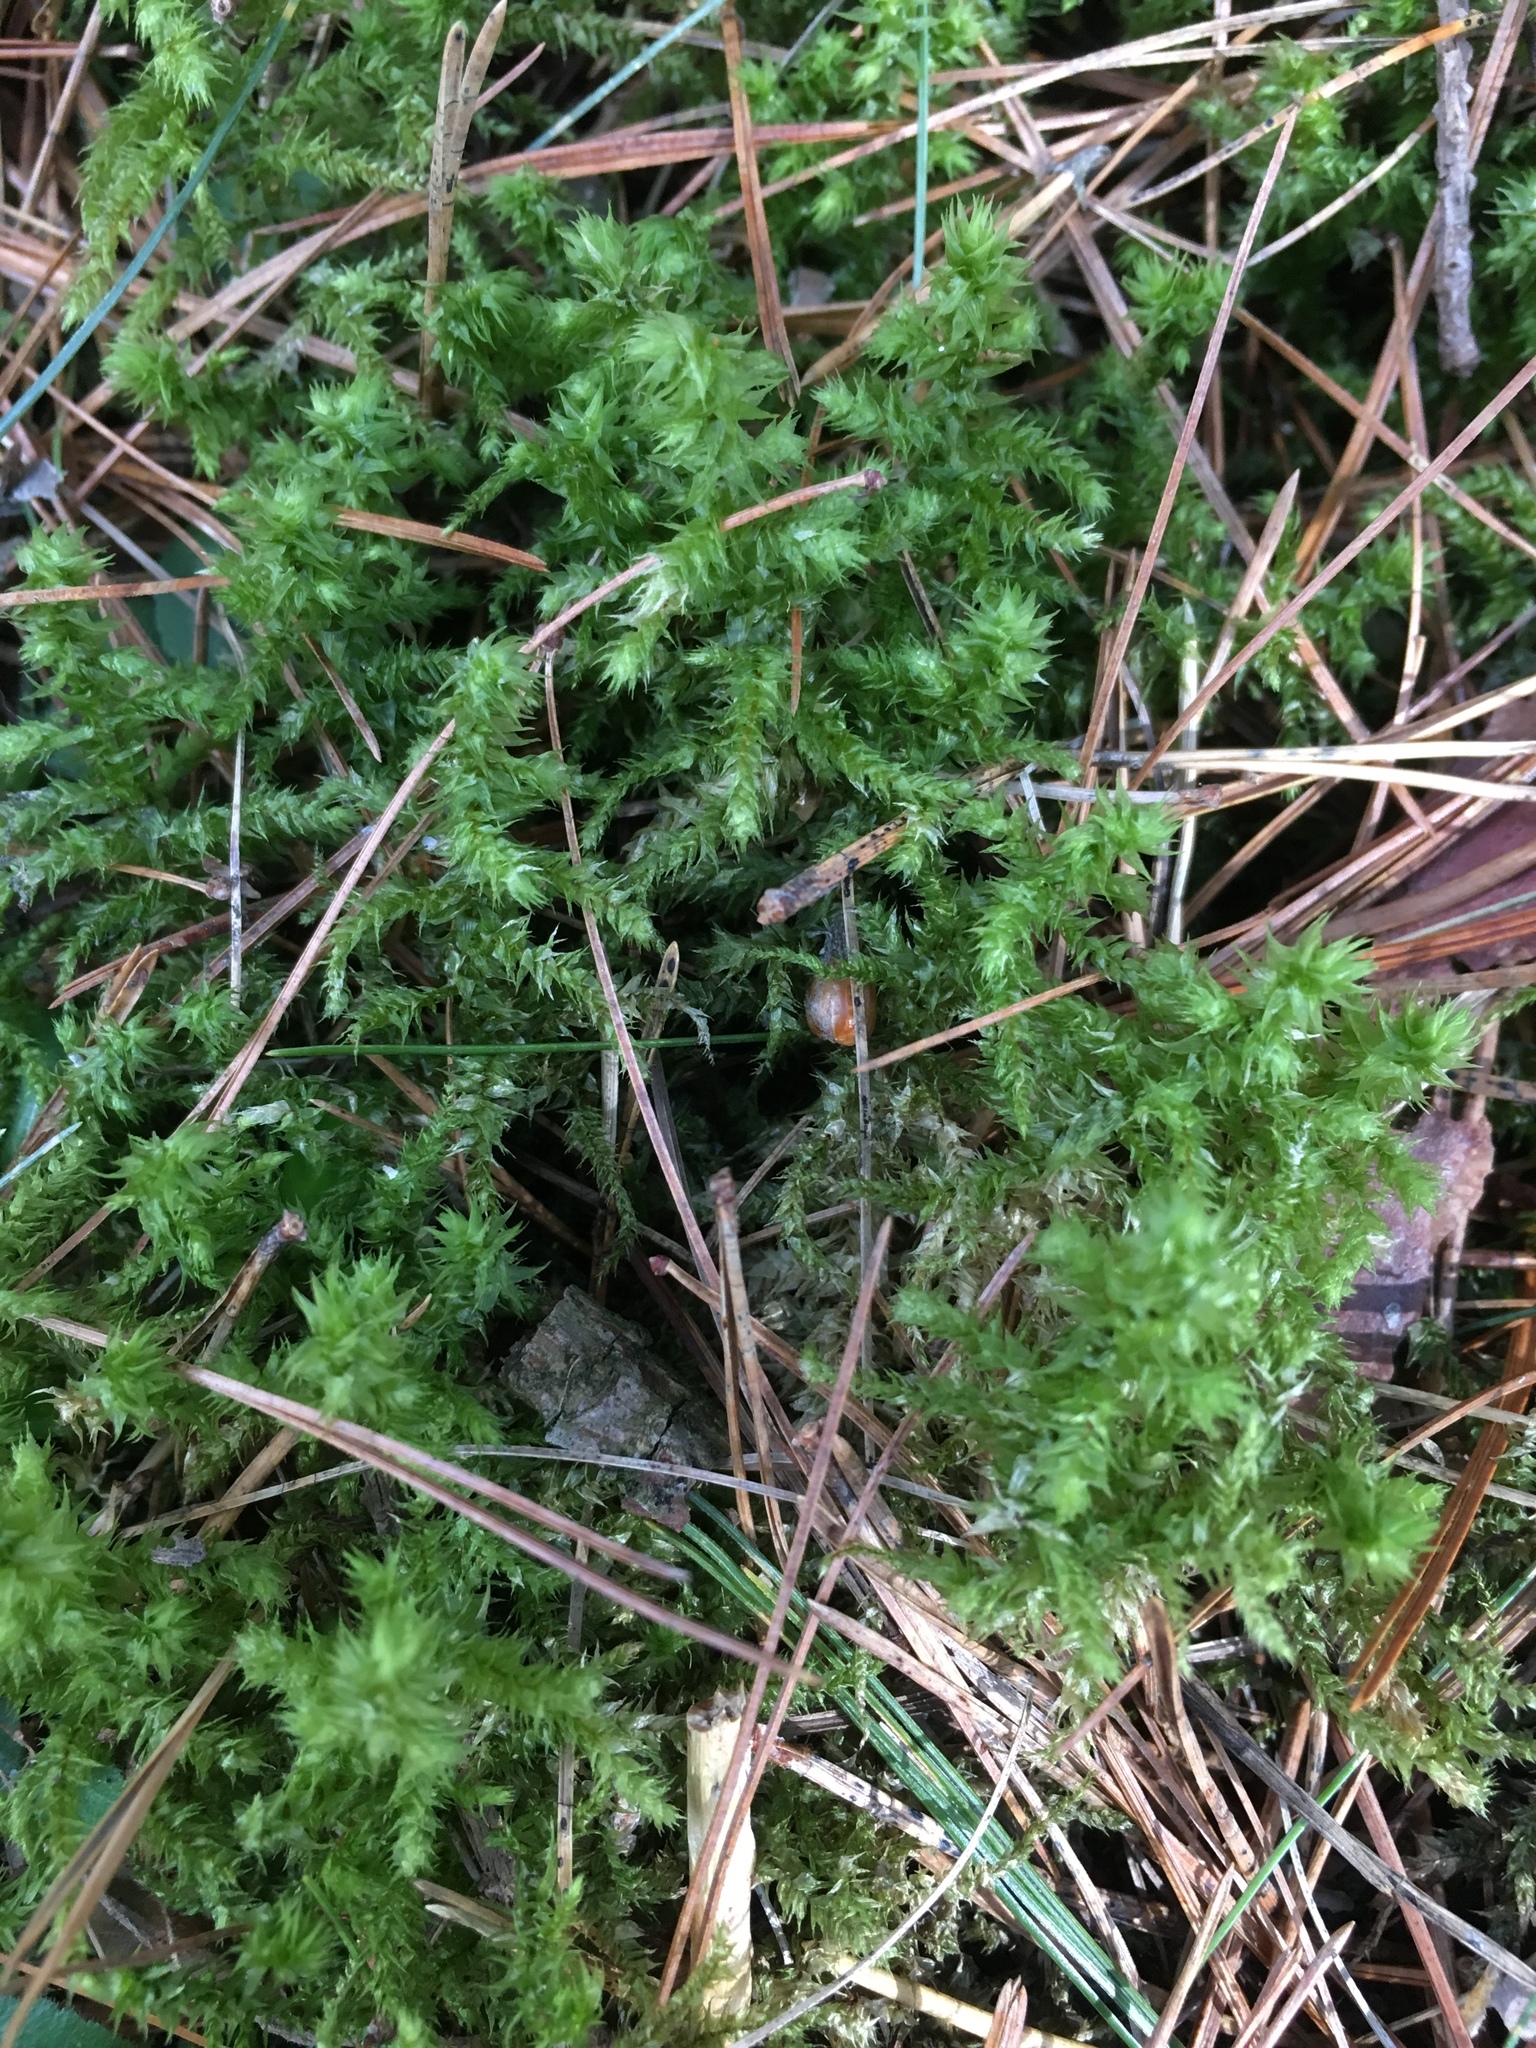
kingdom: Plantae
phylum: Bryophyta
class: Bryopsida
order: Hypnales
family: Hylocomiaceae
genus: Hylocomiadelphus
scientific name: Hylocomiadelphus triquetrus
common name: Rough goose neck moss
